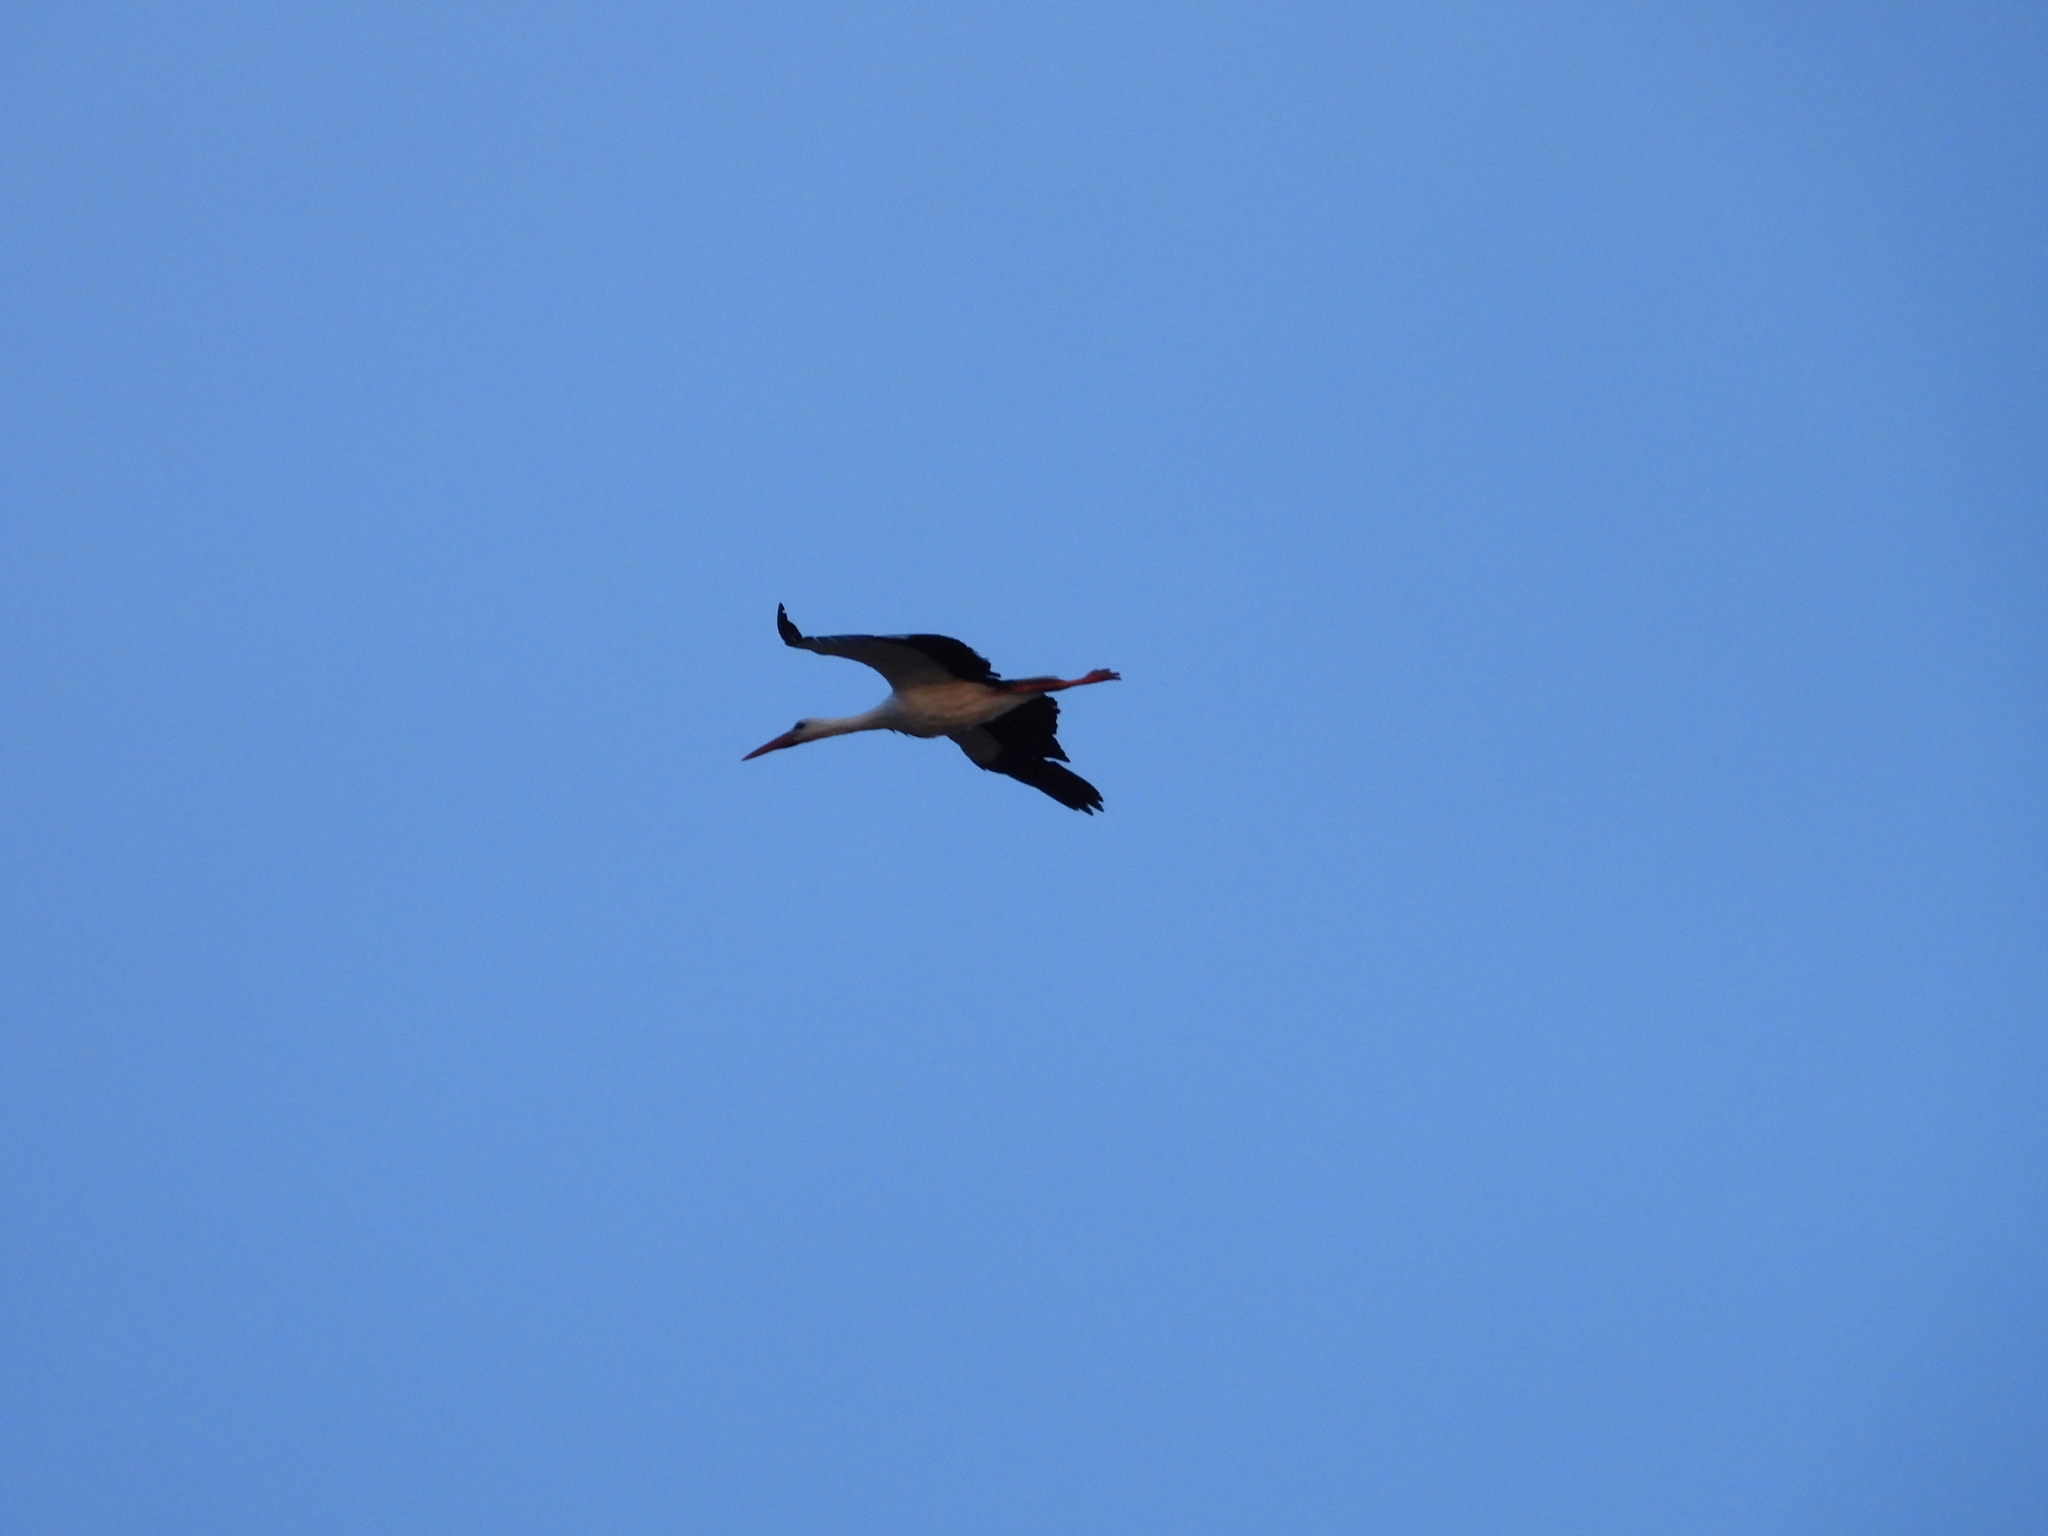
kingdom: Animalia
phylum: Chordata
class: Aves
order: Ciconiiformes
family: Ciconiidae
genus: Ciconia
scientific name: Ciconia ciconia
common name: White stork
